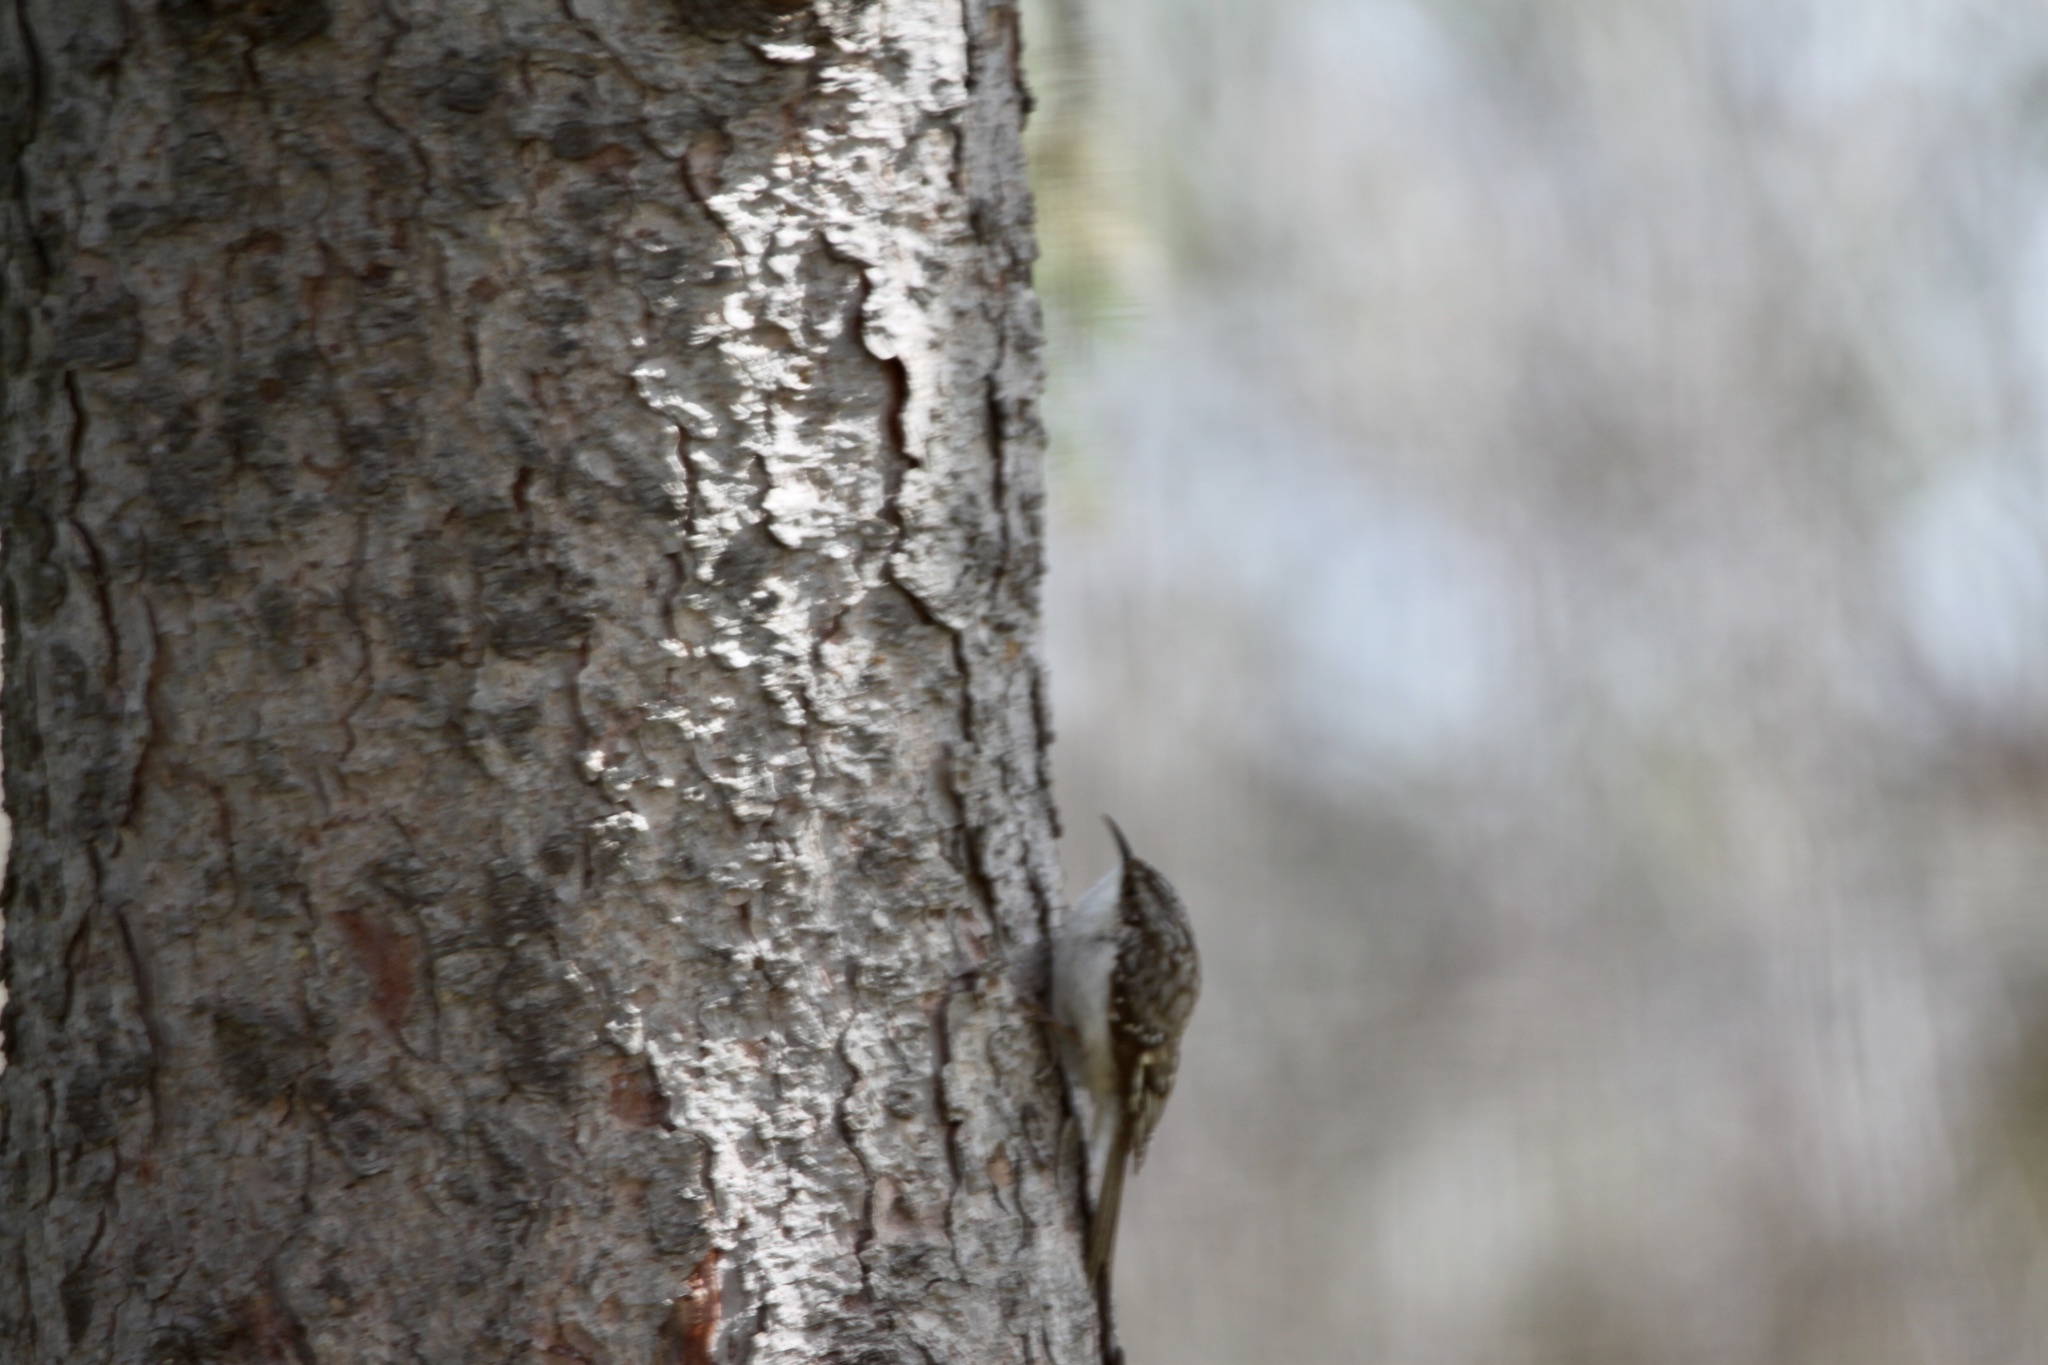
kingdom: Animalia
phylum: Chordata
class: Aves
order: Passeriformes
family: Certhiidae
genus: Certhia
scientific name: Certhia americana
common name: Brown creeper
